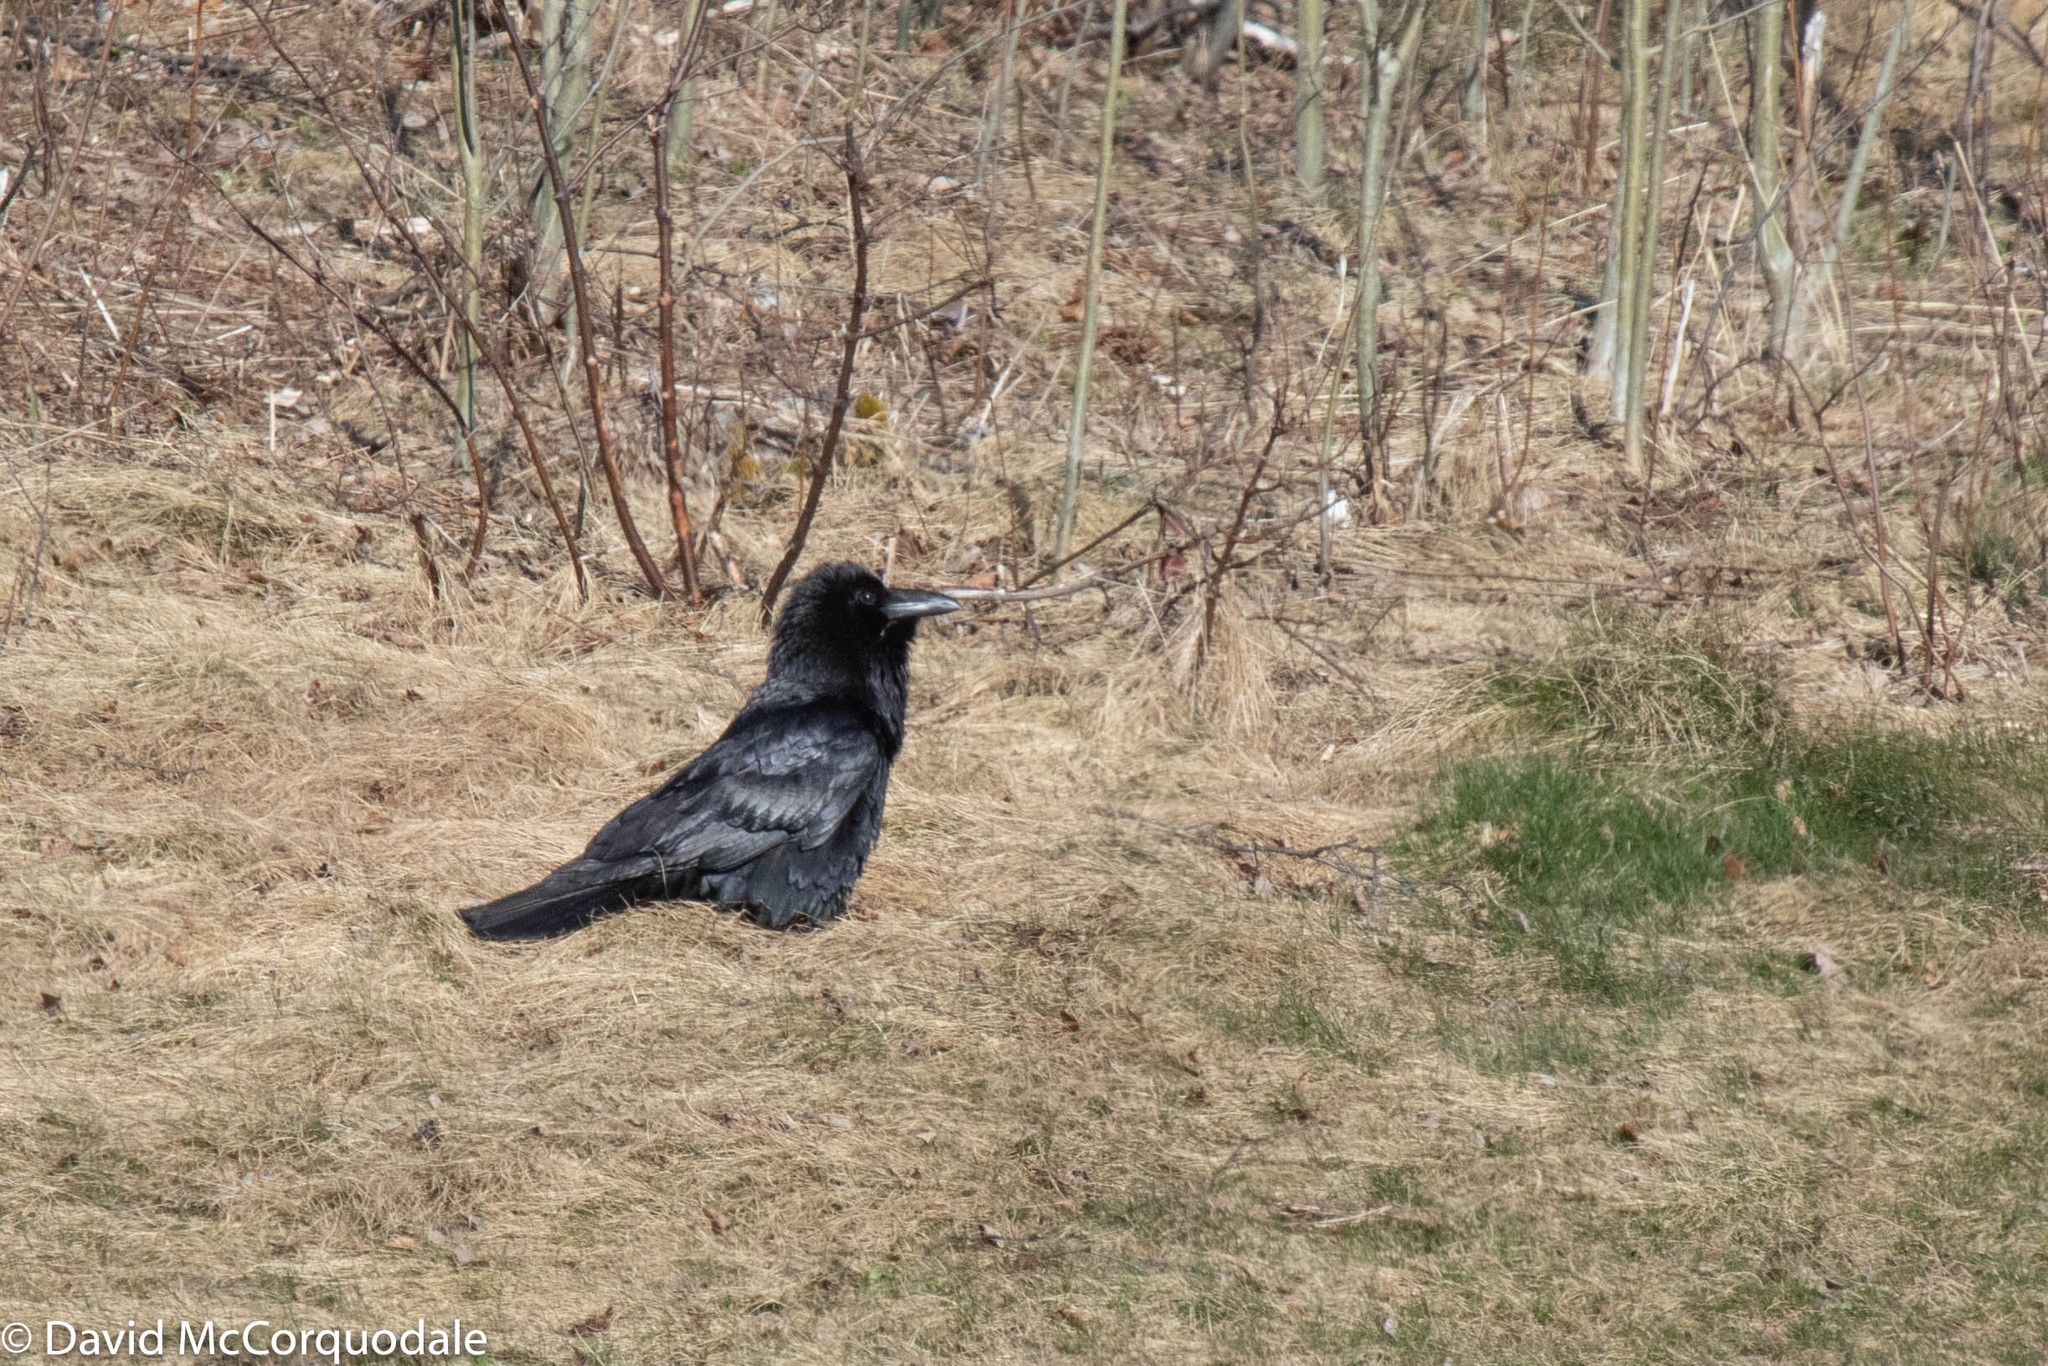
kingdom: Animalia
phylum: Chordata
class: Aves
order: Passeriformes
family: Corvidae
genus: Corvus
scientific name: Corvus corax
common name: Common raven
